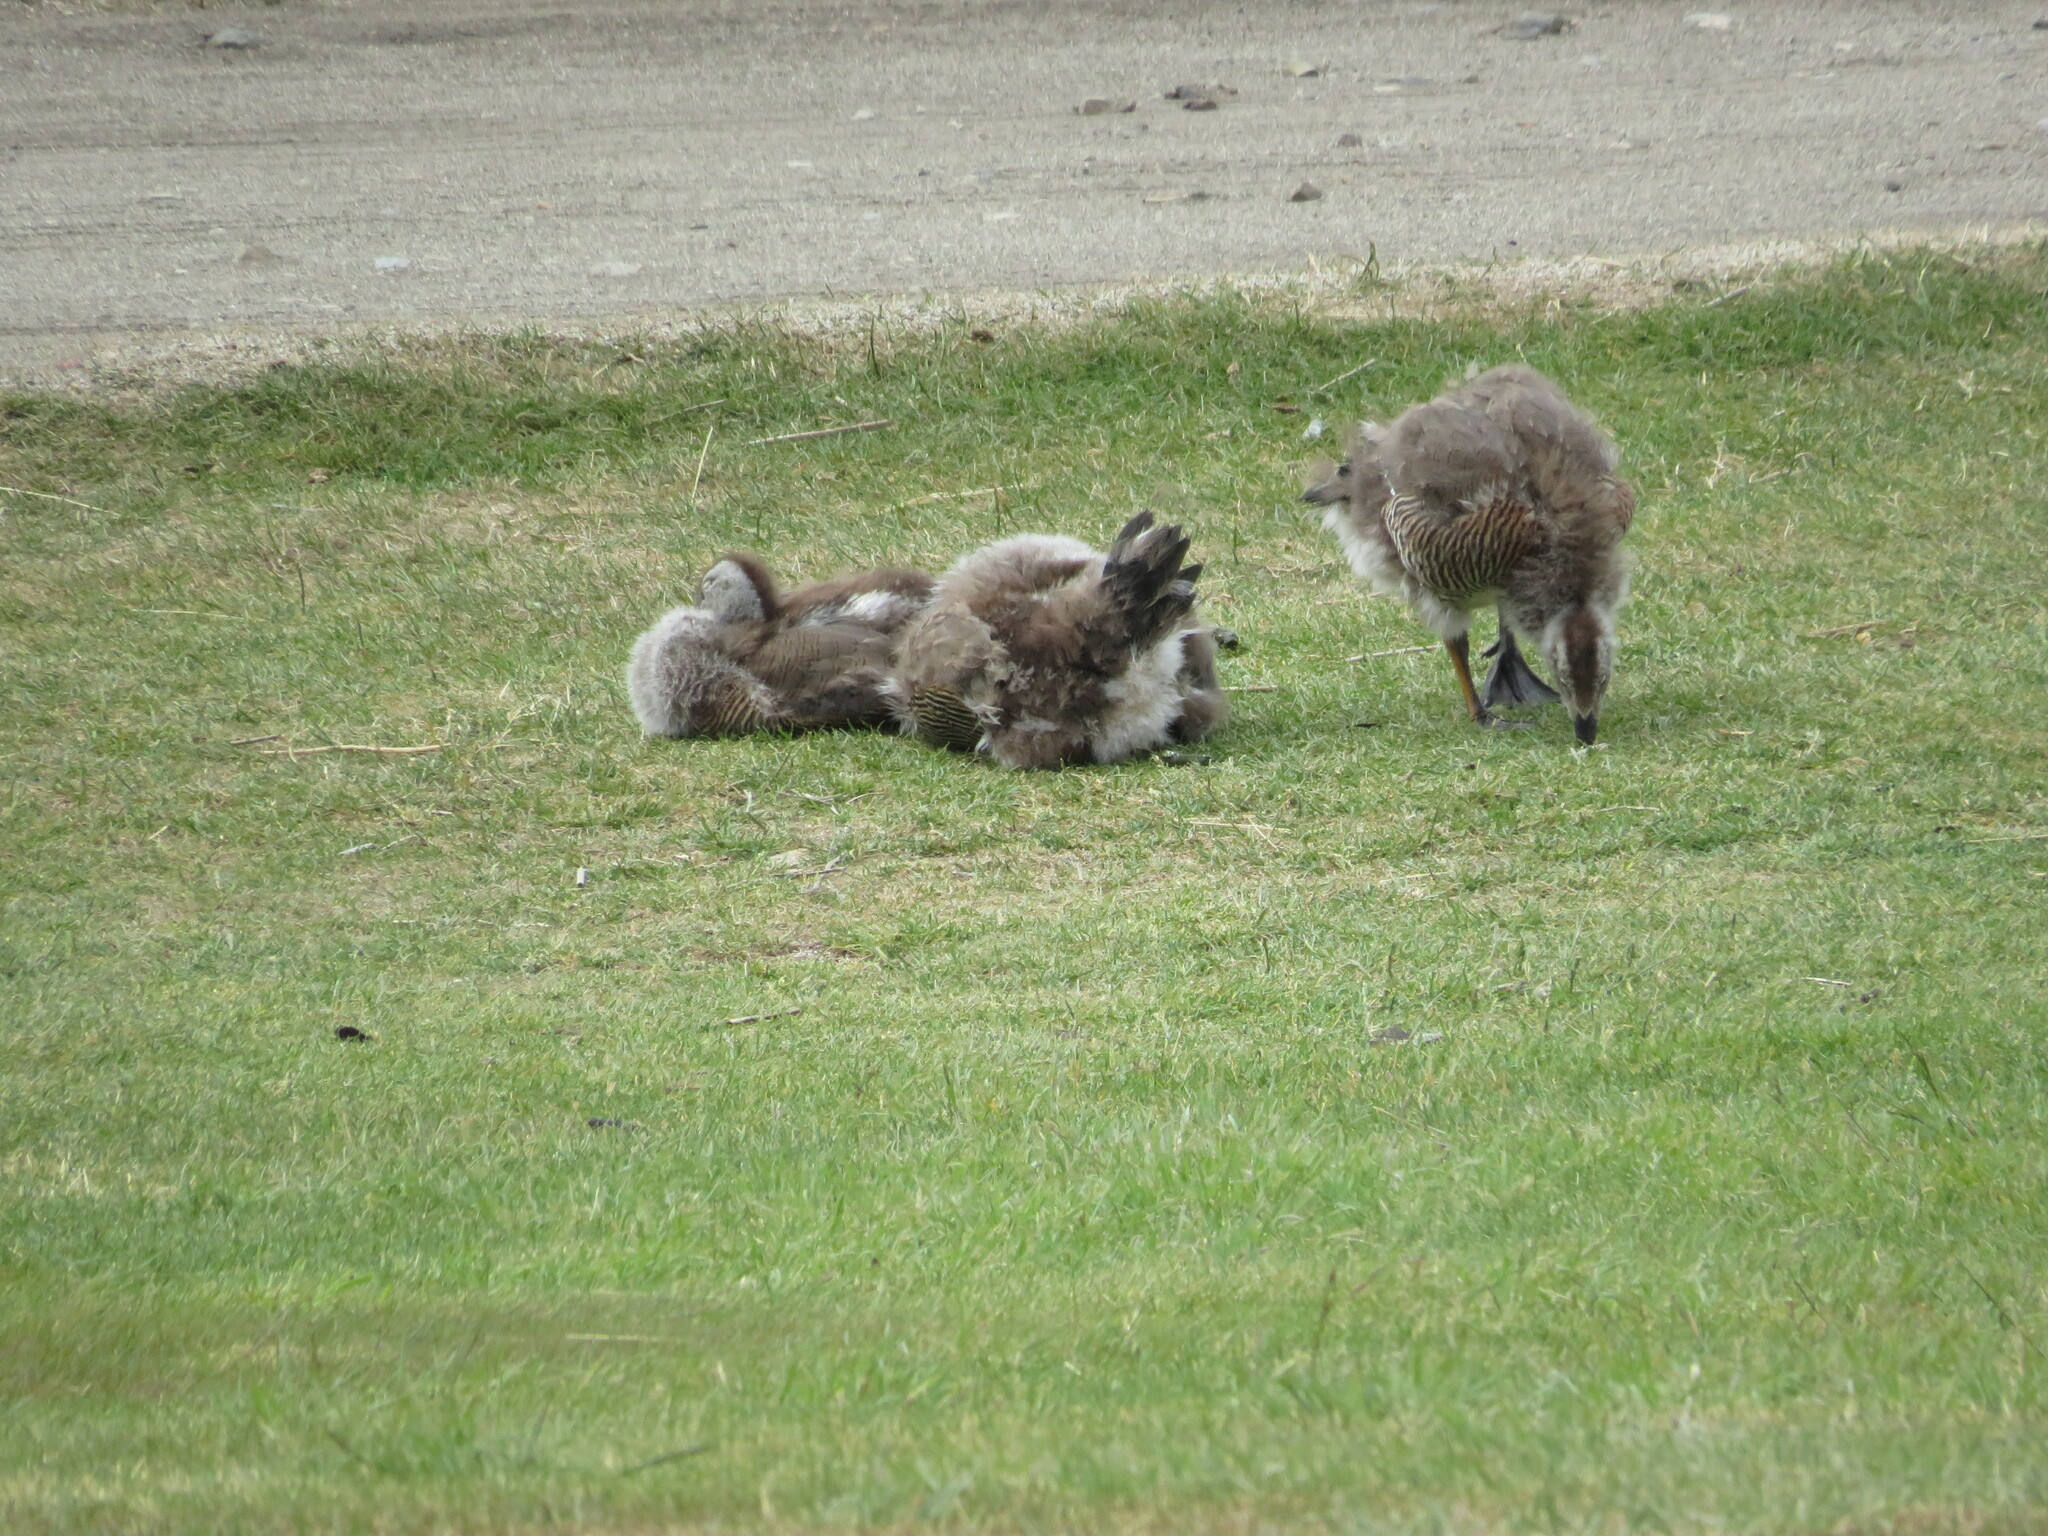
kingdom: Animalia
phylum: Chordata
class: Aves
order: Anseriformes
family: Anatidae
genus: Chloephaga
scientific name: Chloephaga poliocephala
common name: Ashy-headed goose
